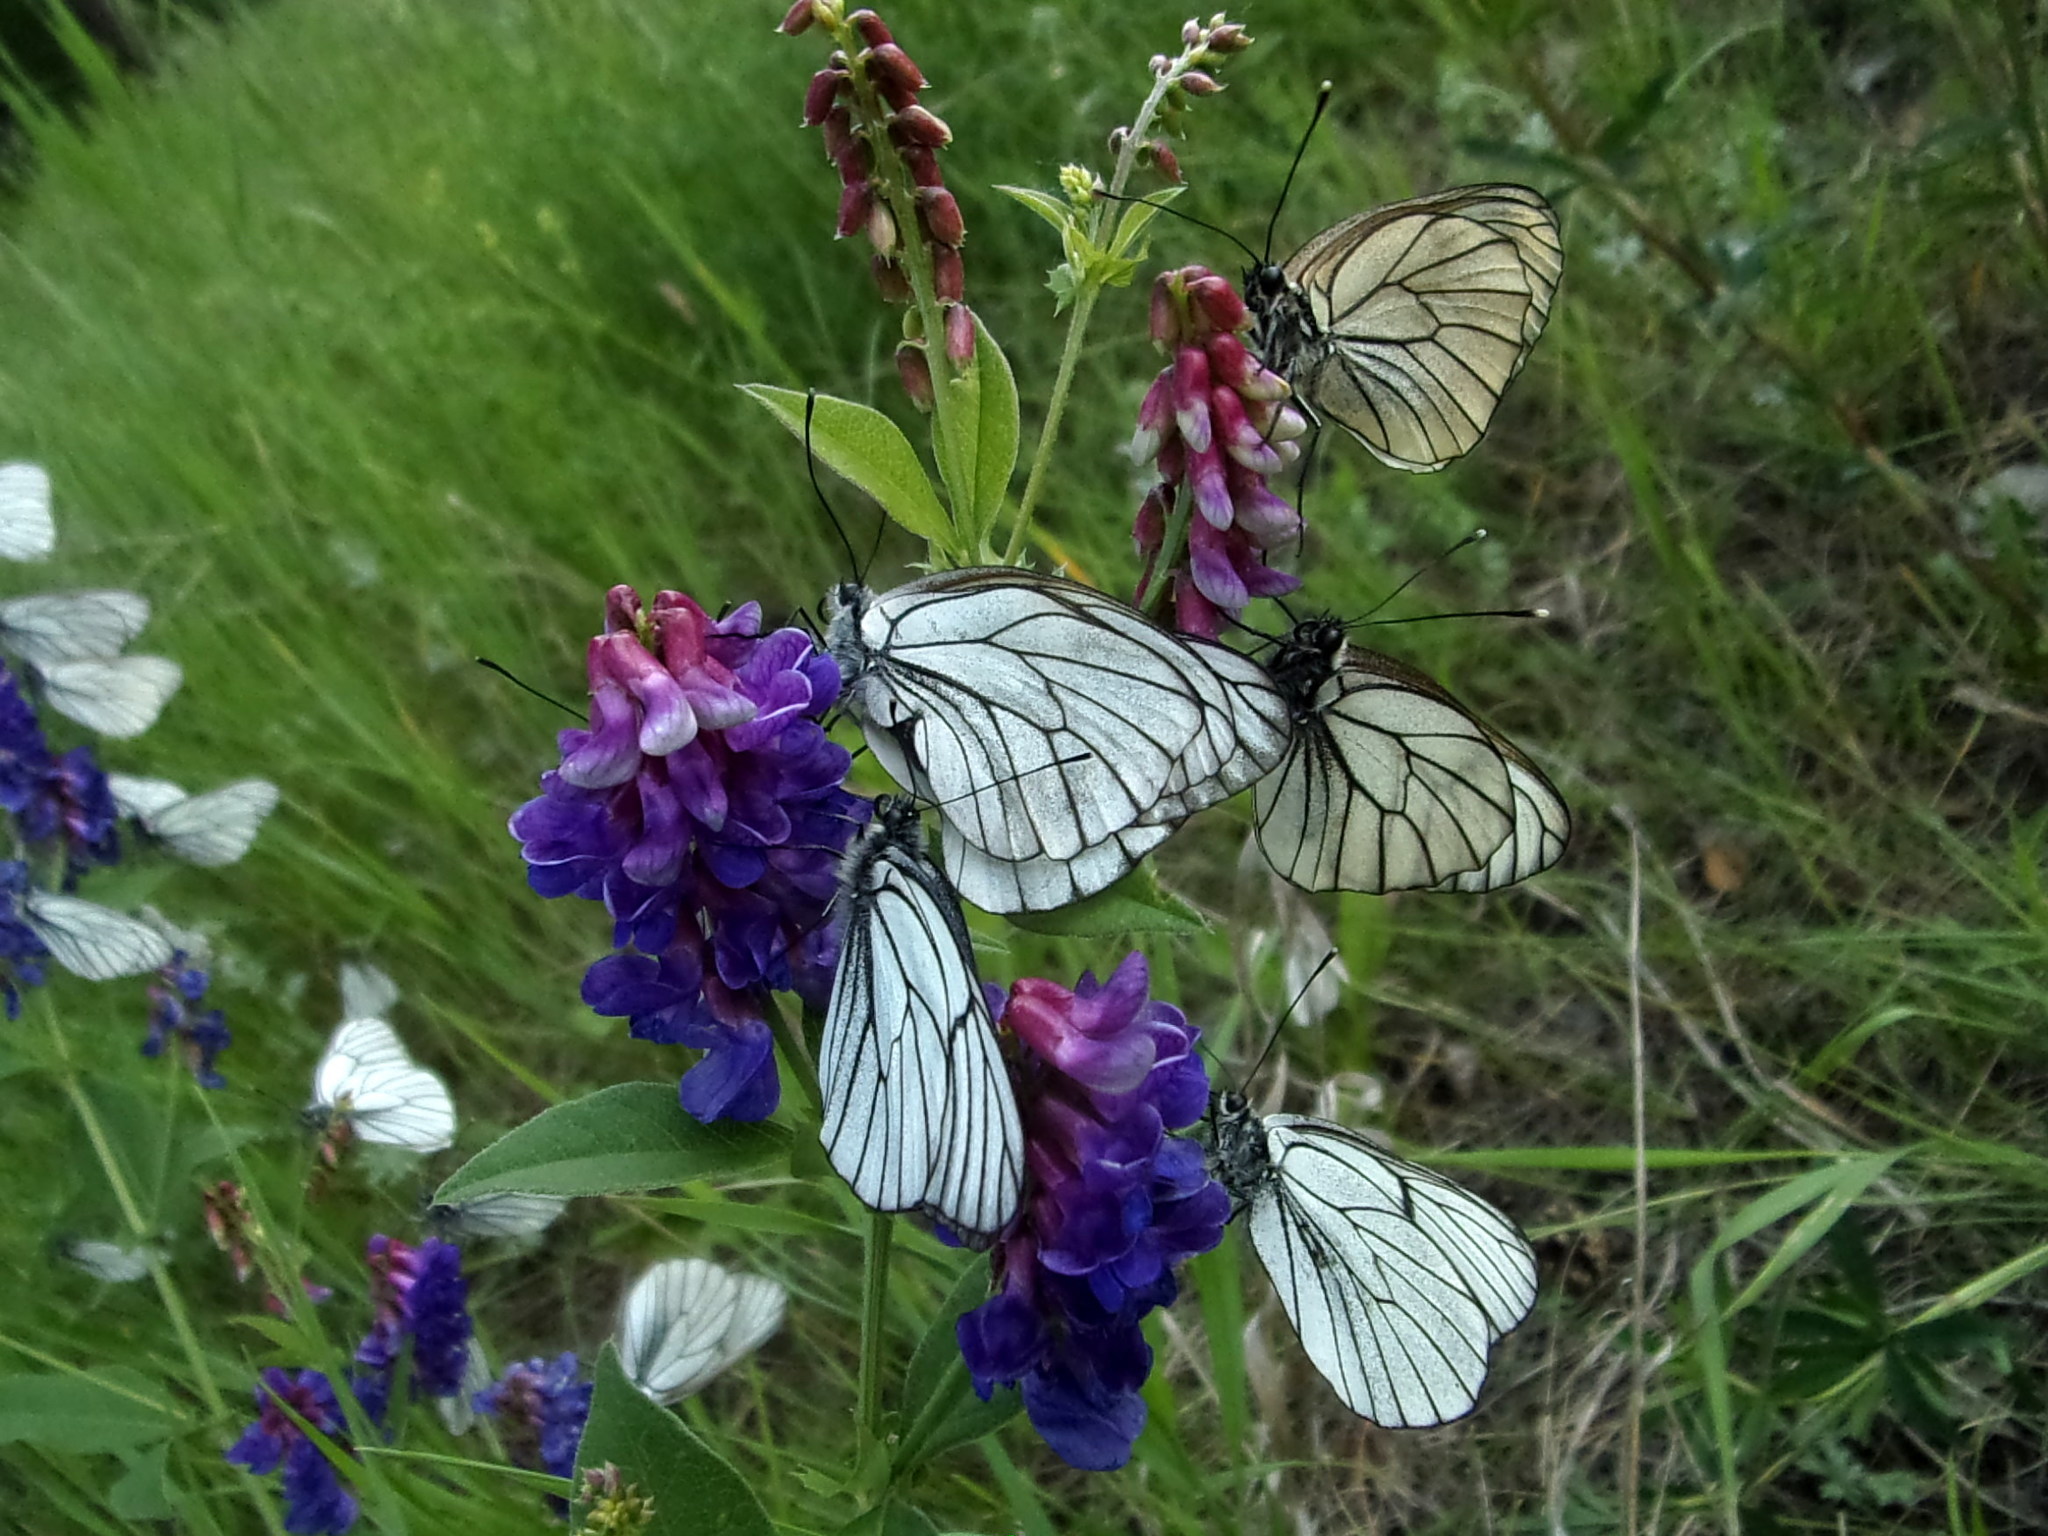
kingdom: Animalia
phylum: Arthropoda
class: Insecta
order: Lepidoptera
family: Pieridae
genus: Aporia
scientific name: Aporia crataegi
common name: Black-veined white
